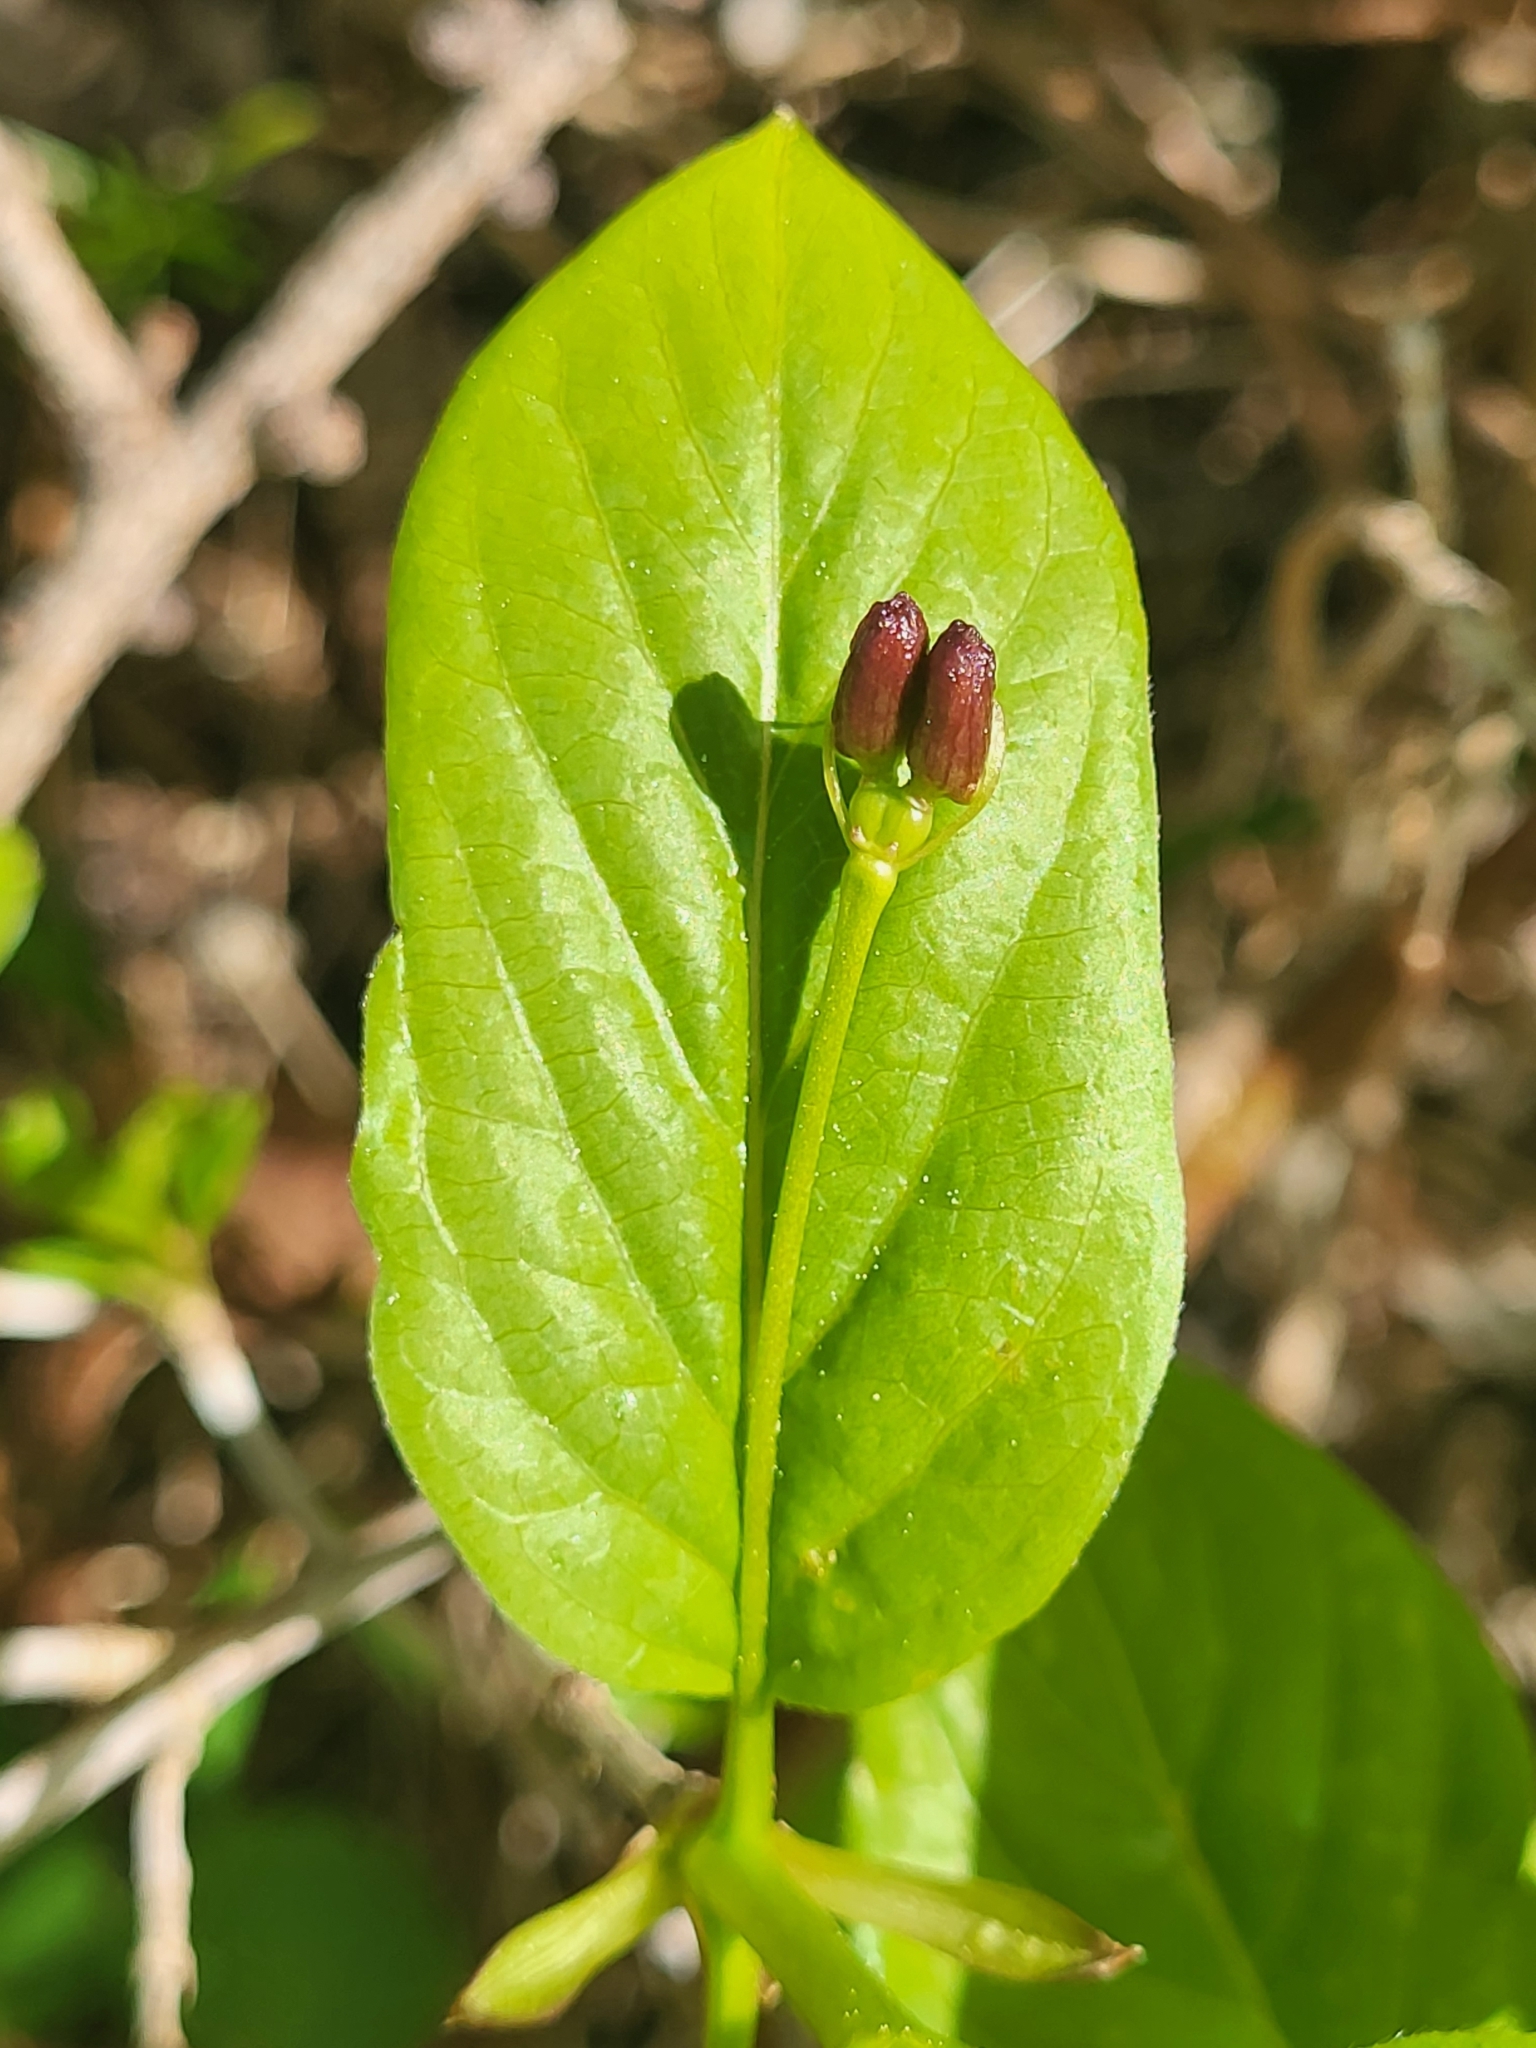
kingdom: Plantae
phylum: Tracheophyta
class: Magnoliopsida
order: Dipsacales
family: Caprifoliaceae
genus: Lonicera
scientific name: Lonicera alpigena
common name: Alpine honeysuckle
